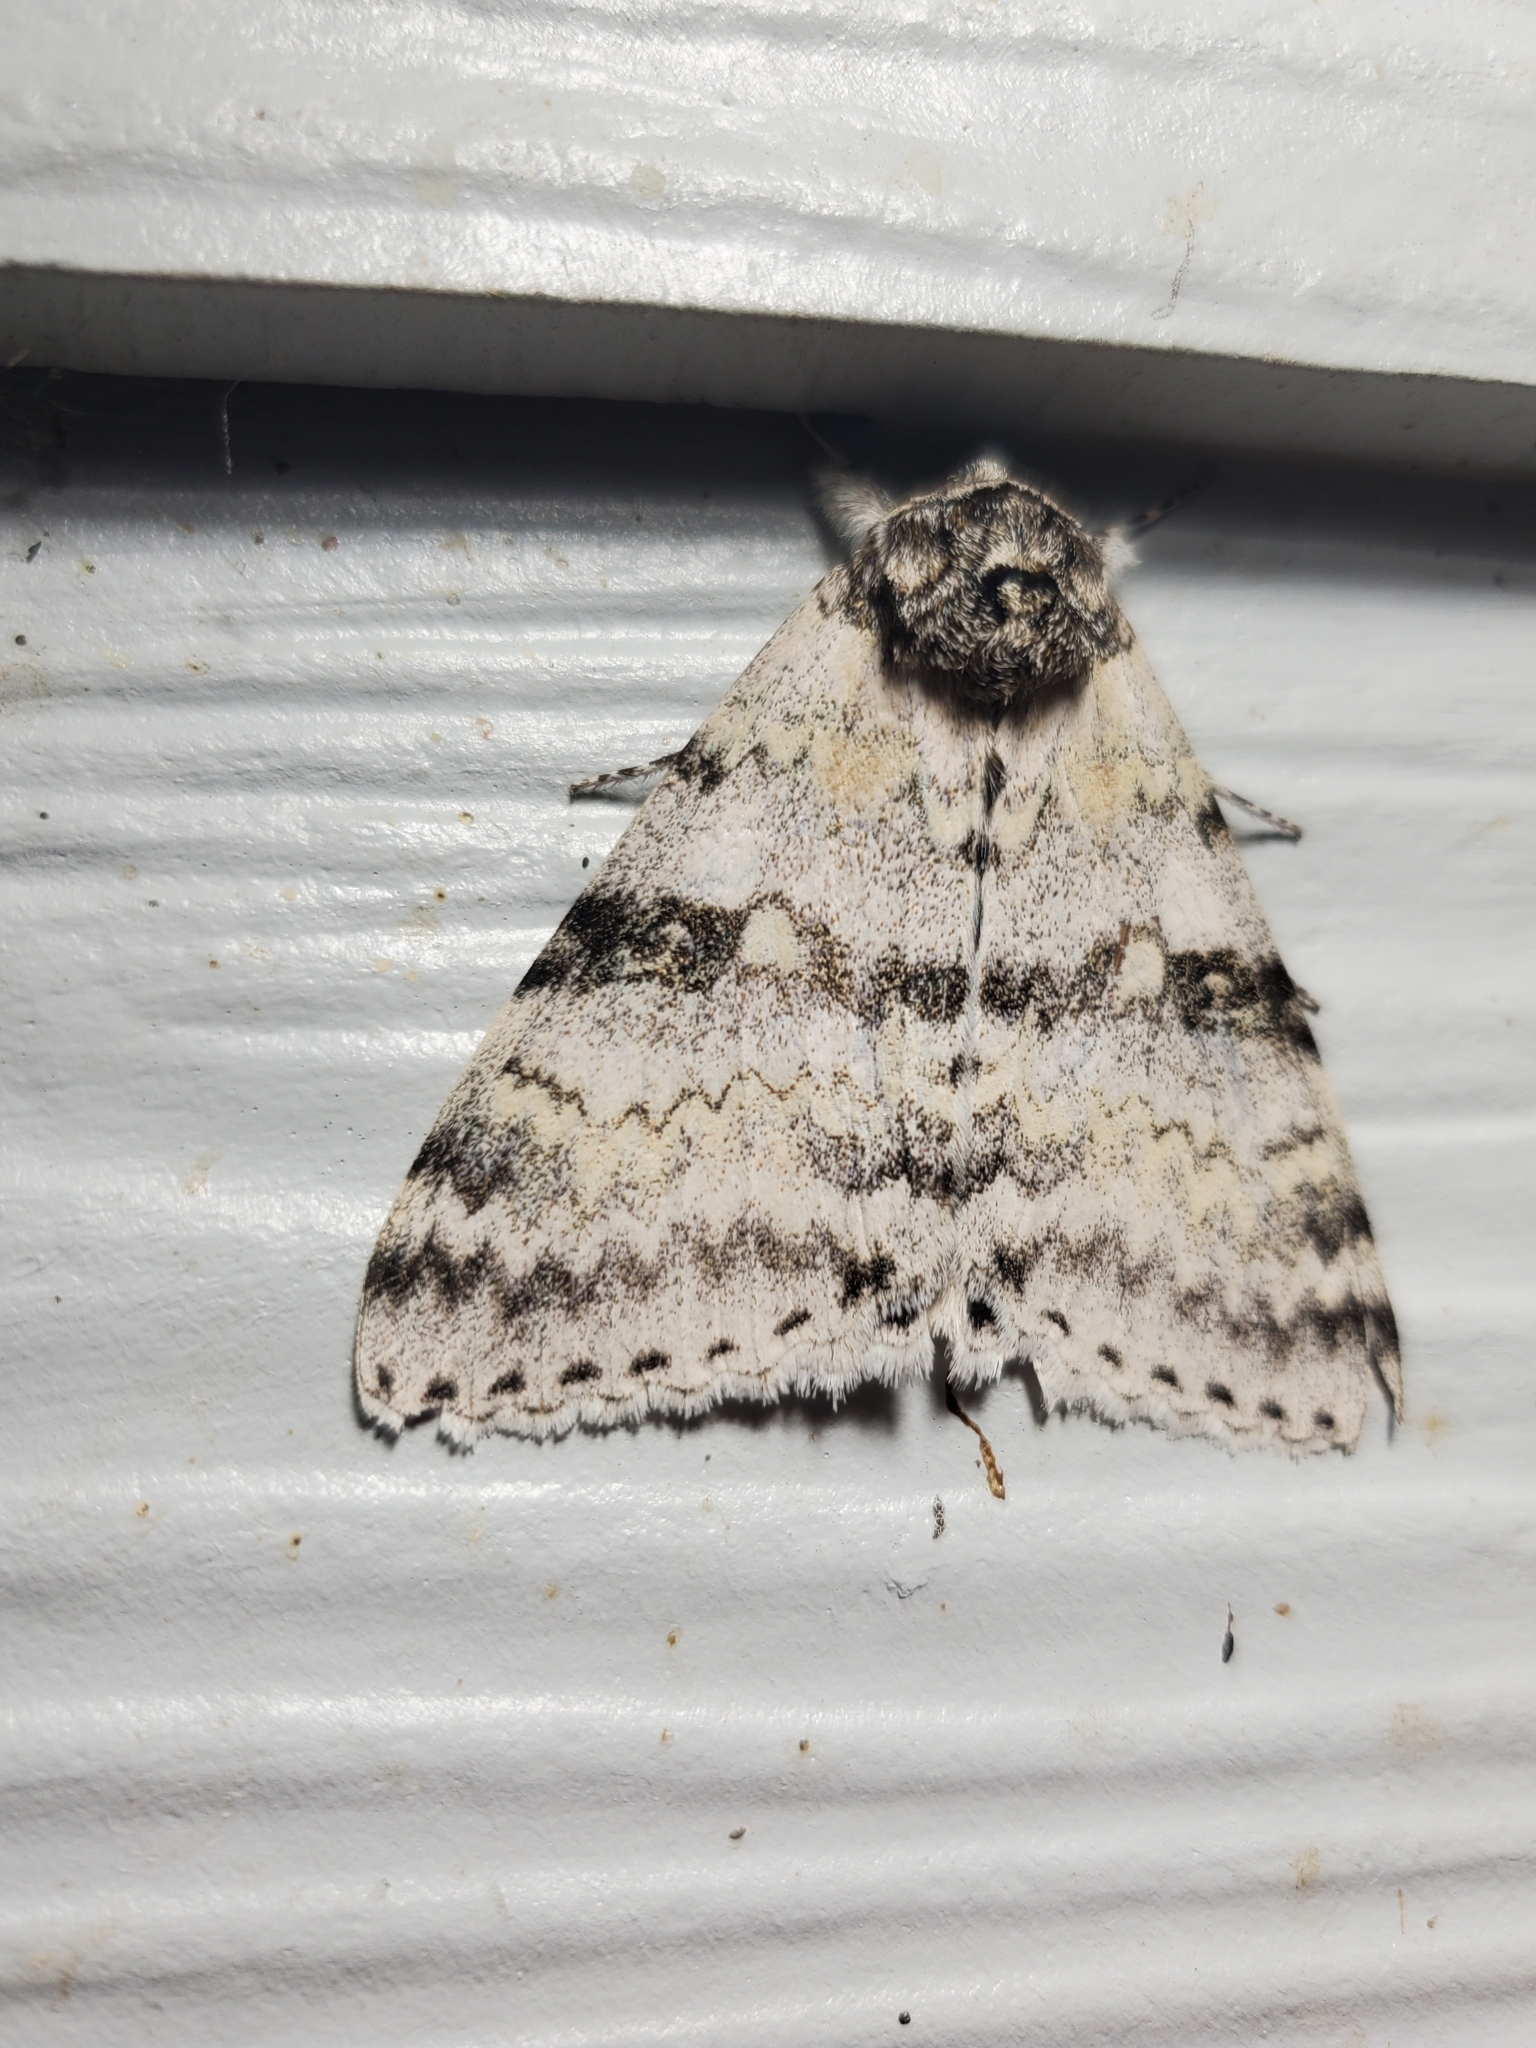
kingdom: Animalia
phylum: Arthropoda
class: Insecta
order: Lepidoptera
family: Erebidae
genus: Catocala
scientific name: Catocala relicta
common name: White underwing
